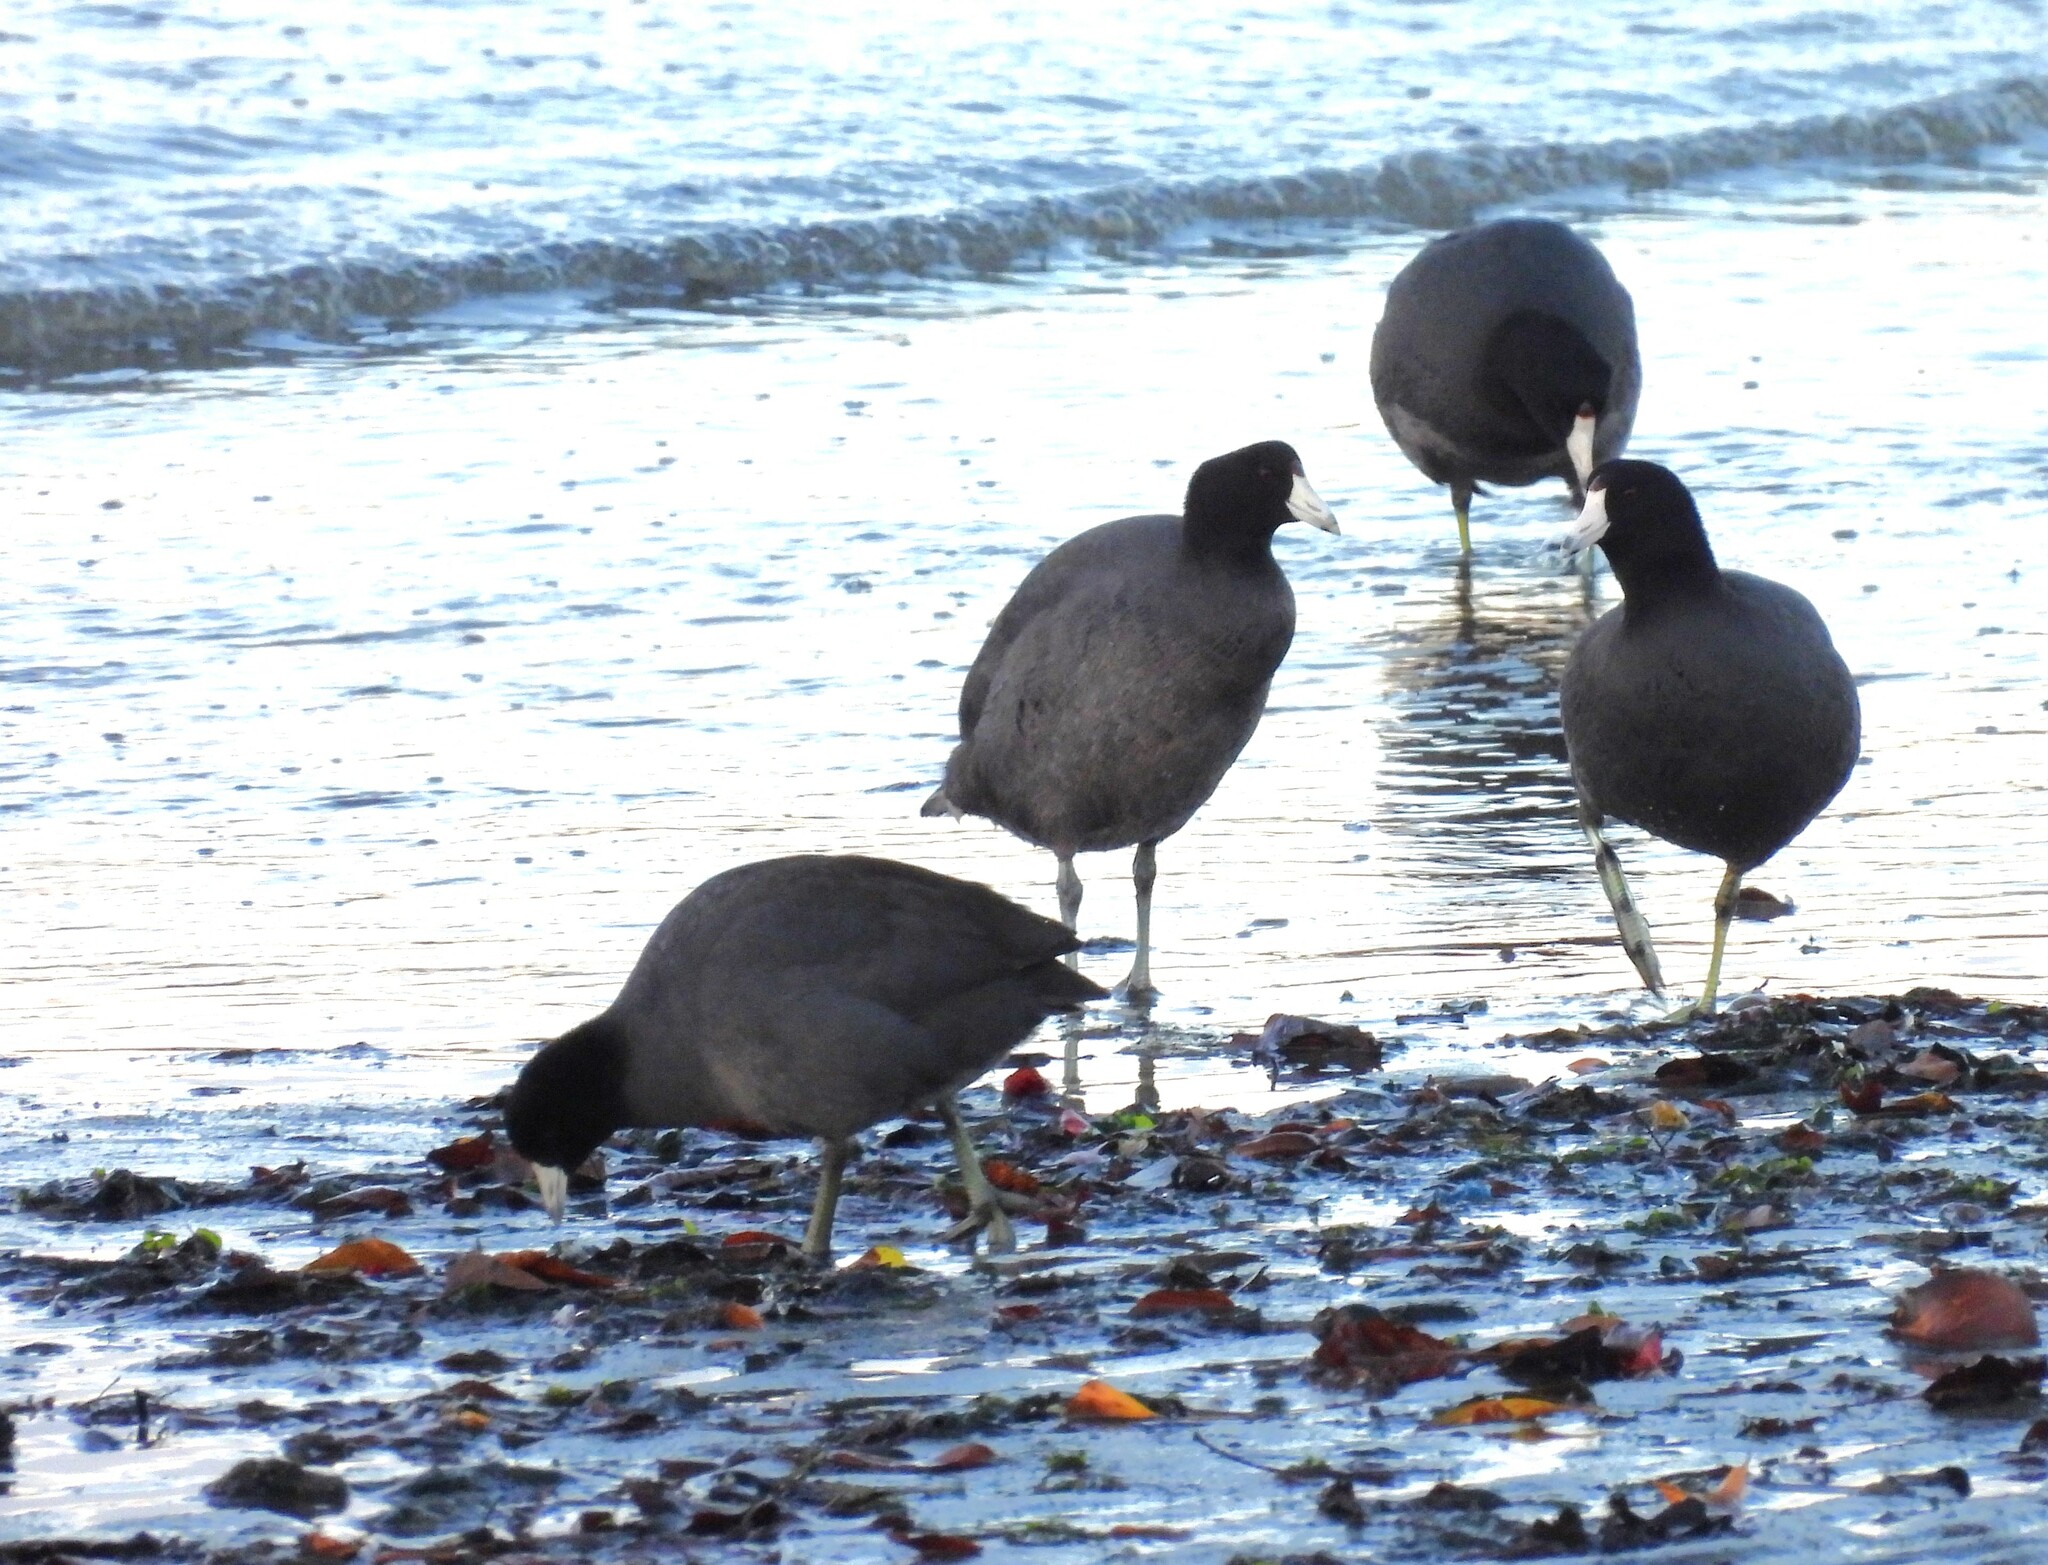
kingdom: Animalia
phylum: Chordata
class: Aves
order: Gruiformes
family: Rallidae
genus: Fulica
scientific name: Fulica americana
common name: American coot
